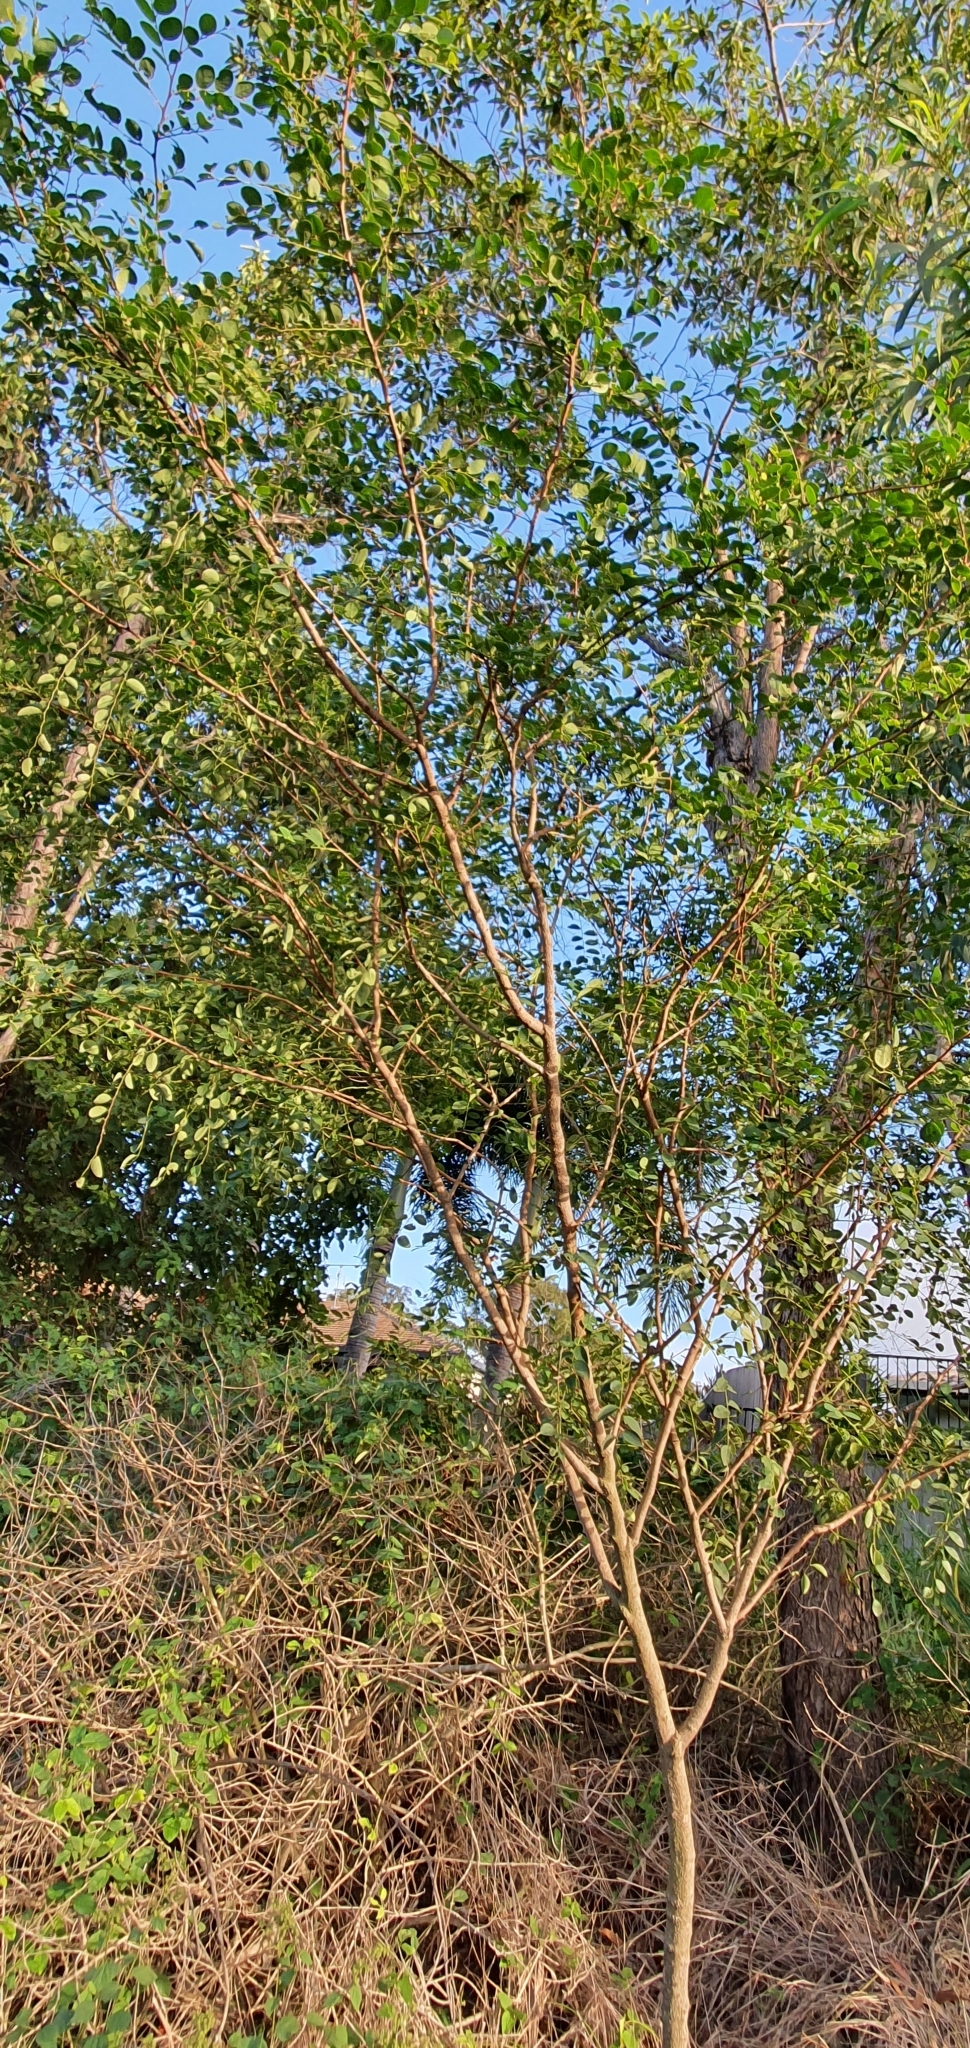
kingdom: Plantae
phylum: Tracheophyta
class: Magnoliopsida
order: Malpighiales
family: Phyllanthaceae
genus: Breynia
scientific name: Breynia oblongifolia
